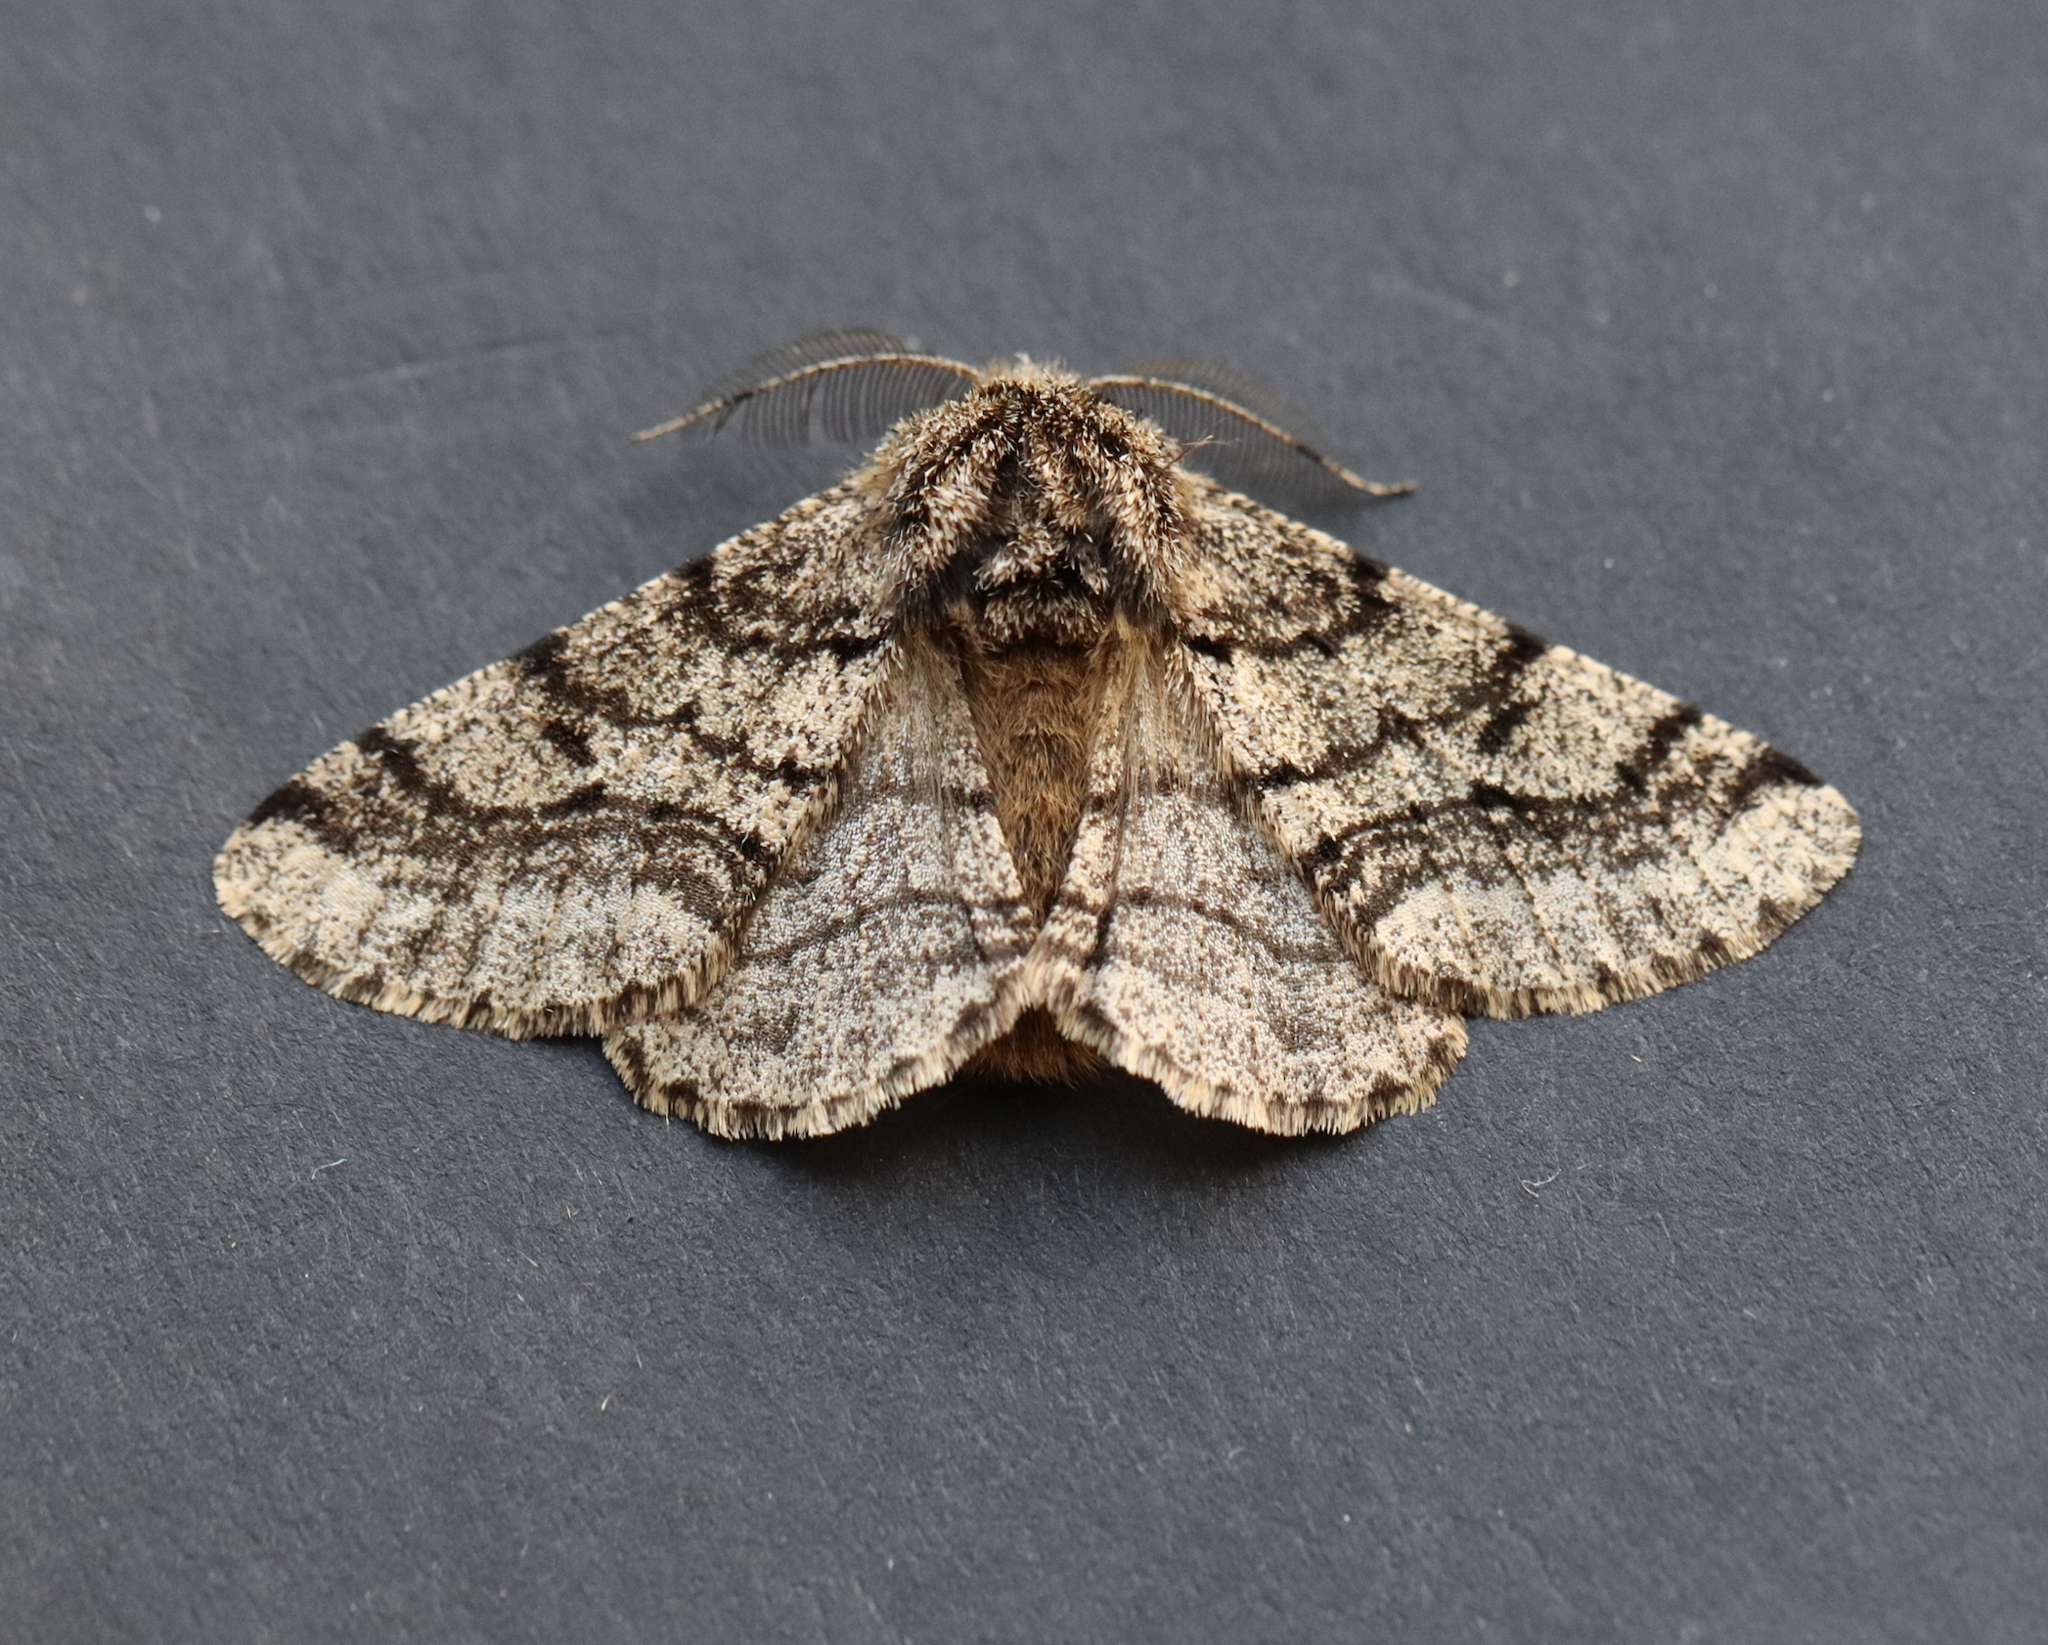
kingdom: Animalia
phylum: Arthropoda
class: Insecta
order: Lepidoptera
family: Geometridae
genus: Lycia
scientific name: Lycia hirtaria
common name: Brindled beauty
